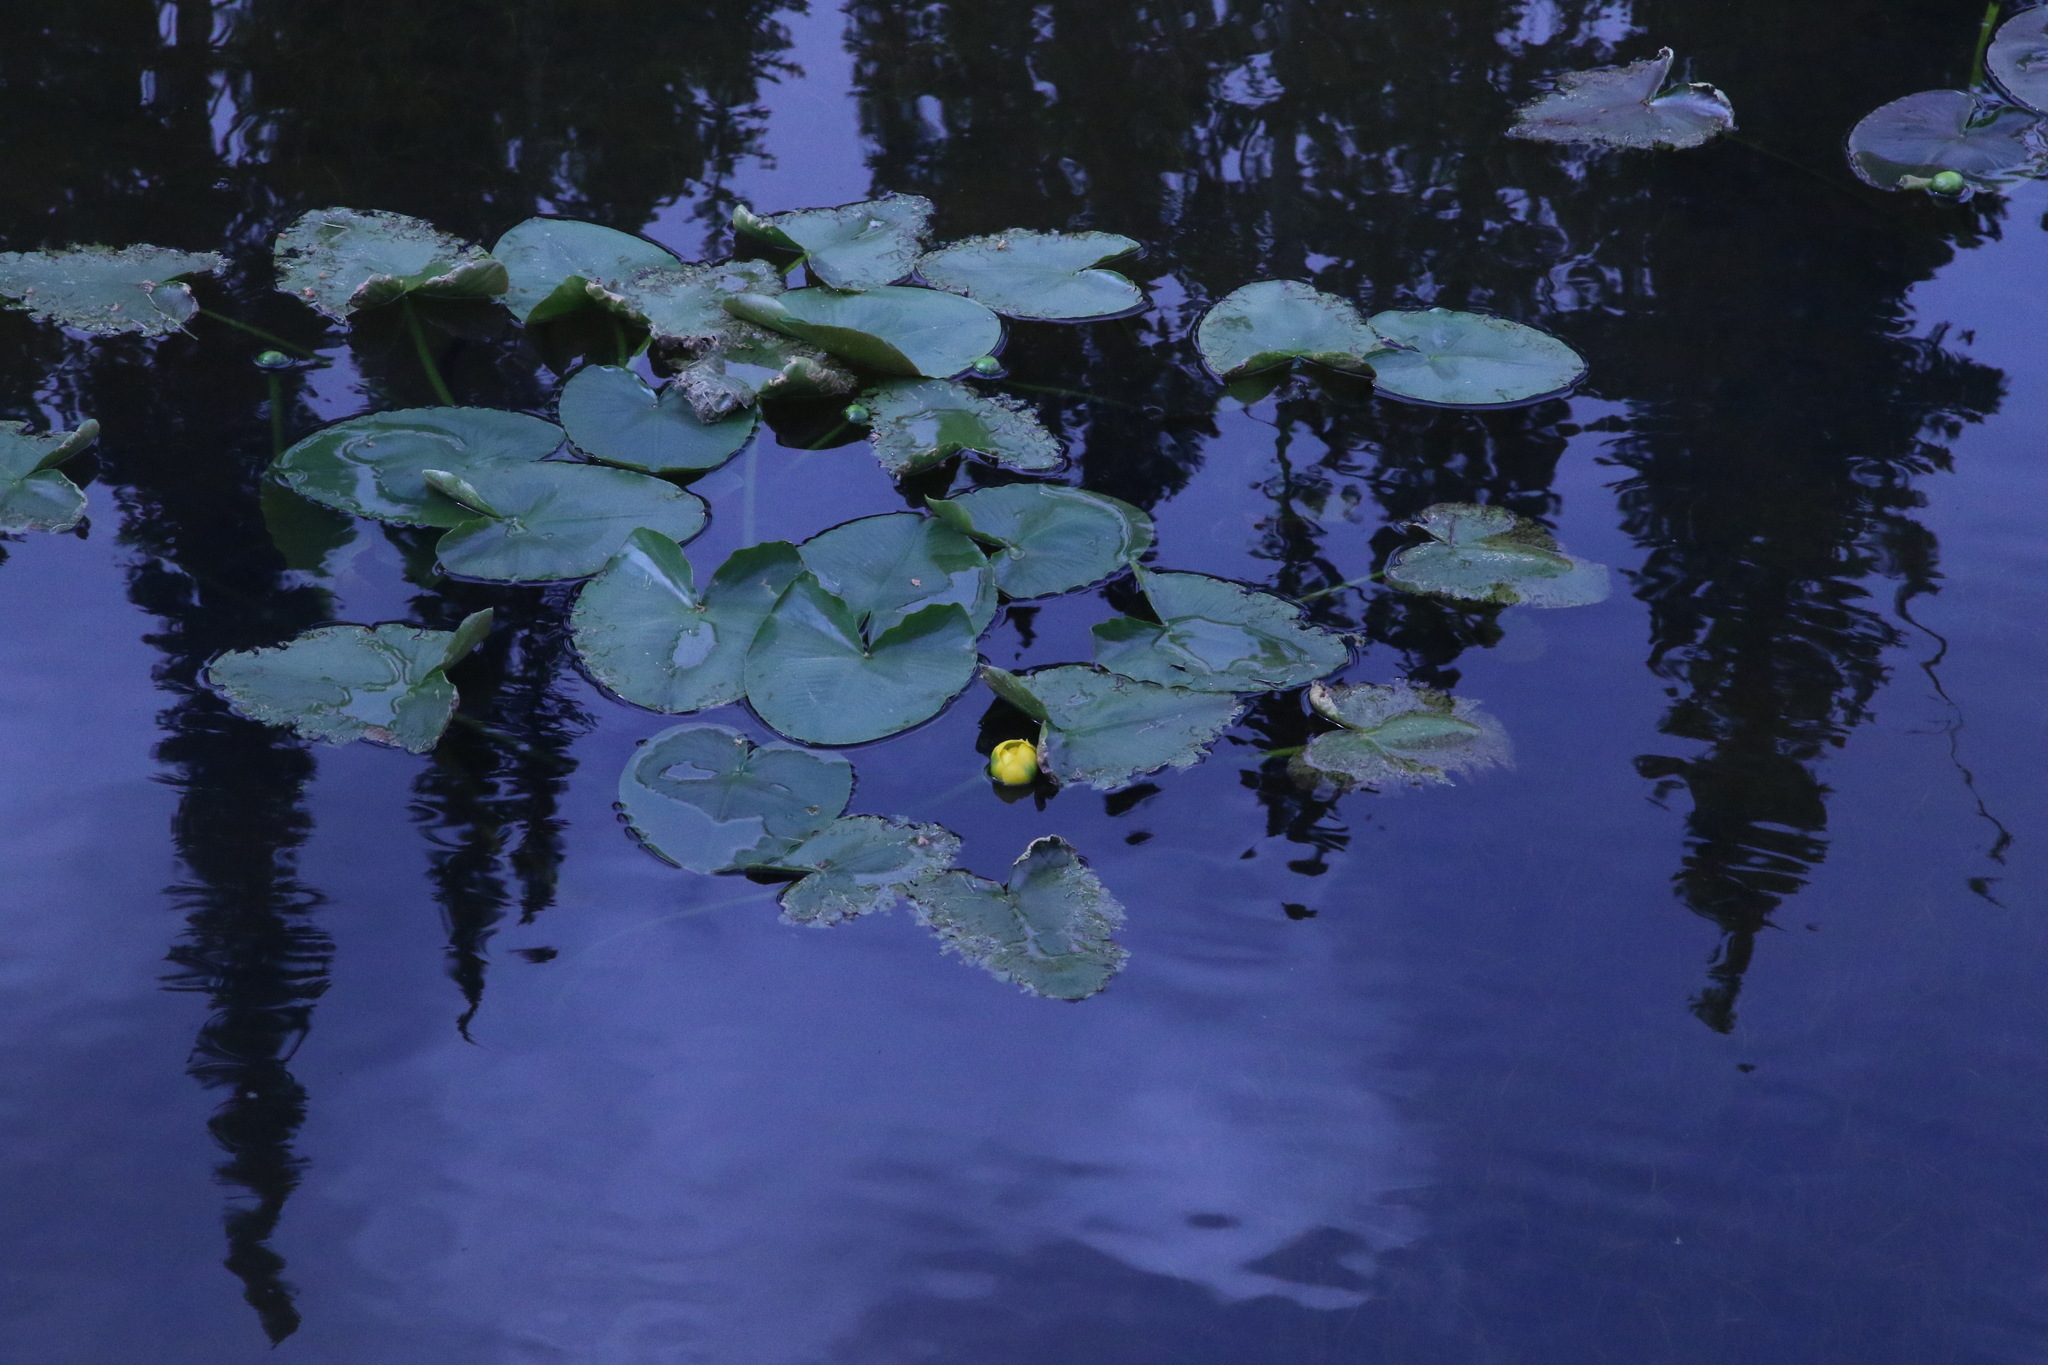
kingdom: Plantae
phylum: Tracheophyta
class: Magnoliopsida
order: Nymphaeales
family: Nymphaeaceae
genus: Nuphar
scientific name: Nuphar polysepala
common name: Rocky mountain cow-lily
